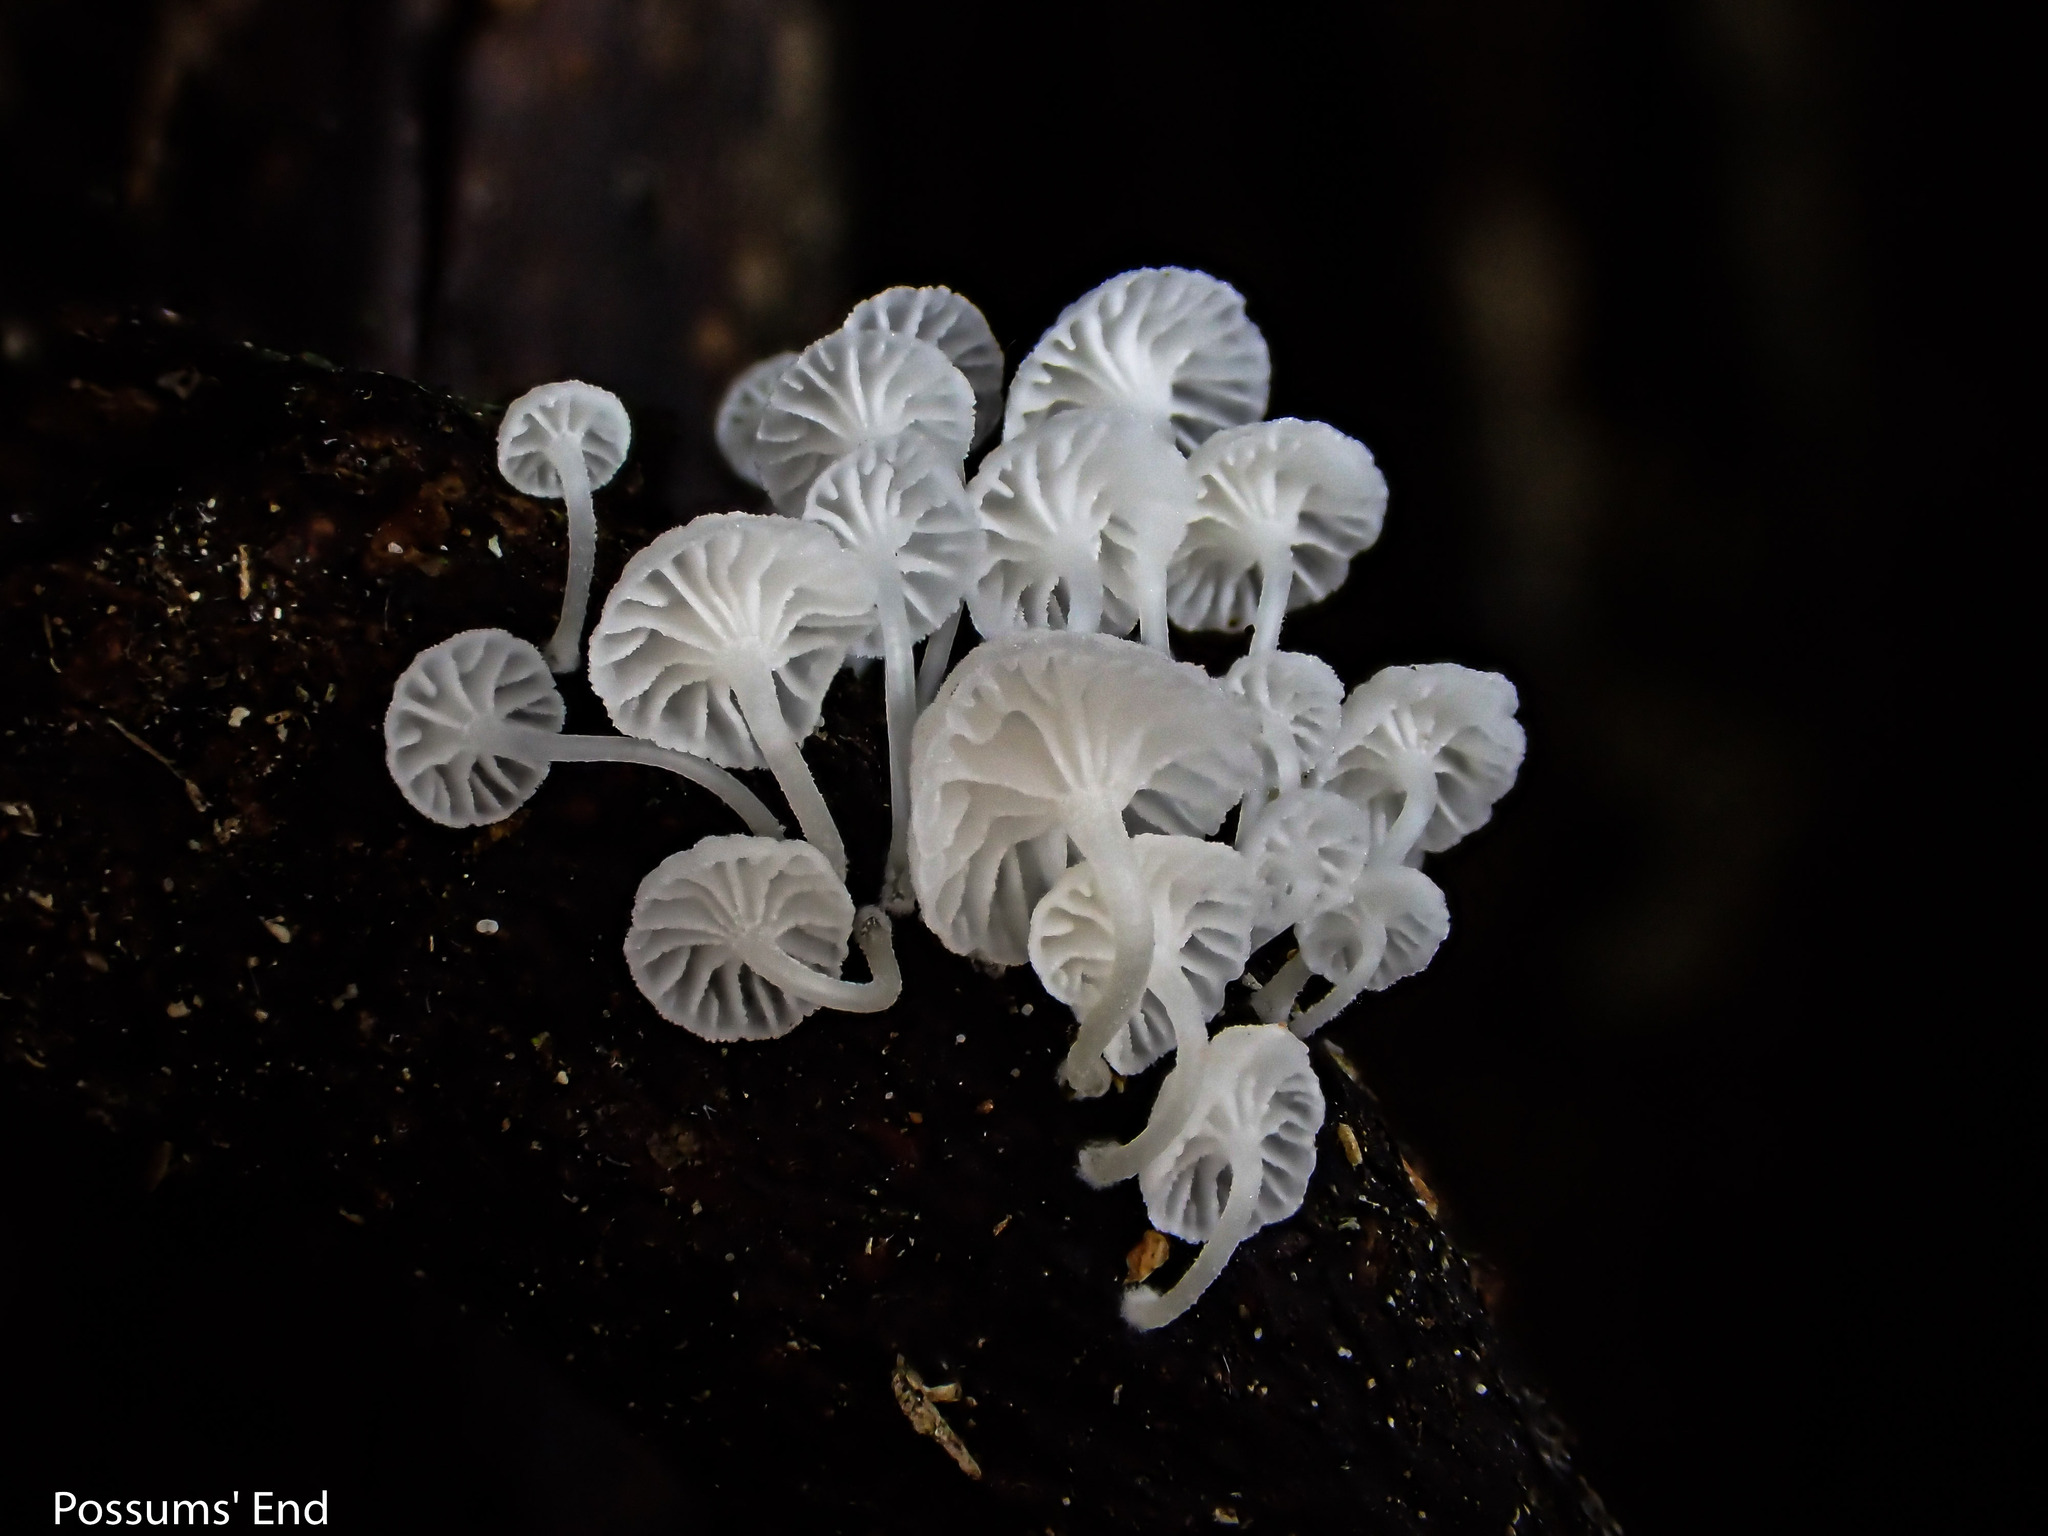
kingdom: Fungi
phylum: Basidiomycota
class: Agaricomycetes
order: Agaricales
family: Omphalotaceae
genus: Marasmiellus
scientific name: Marasmiellus candidus
